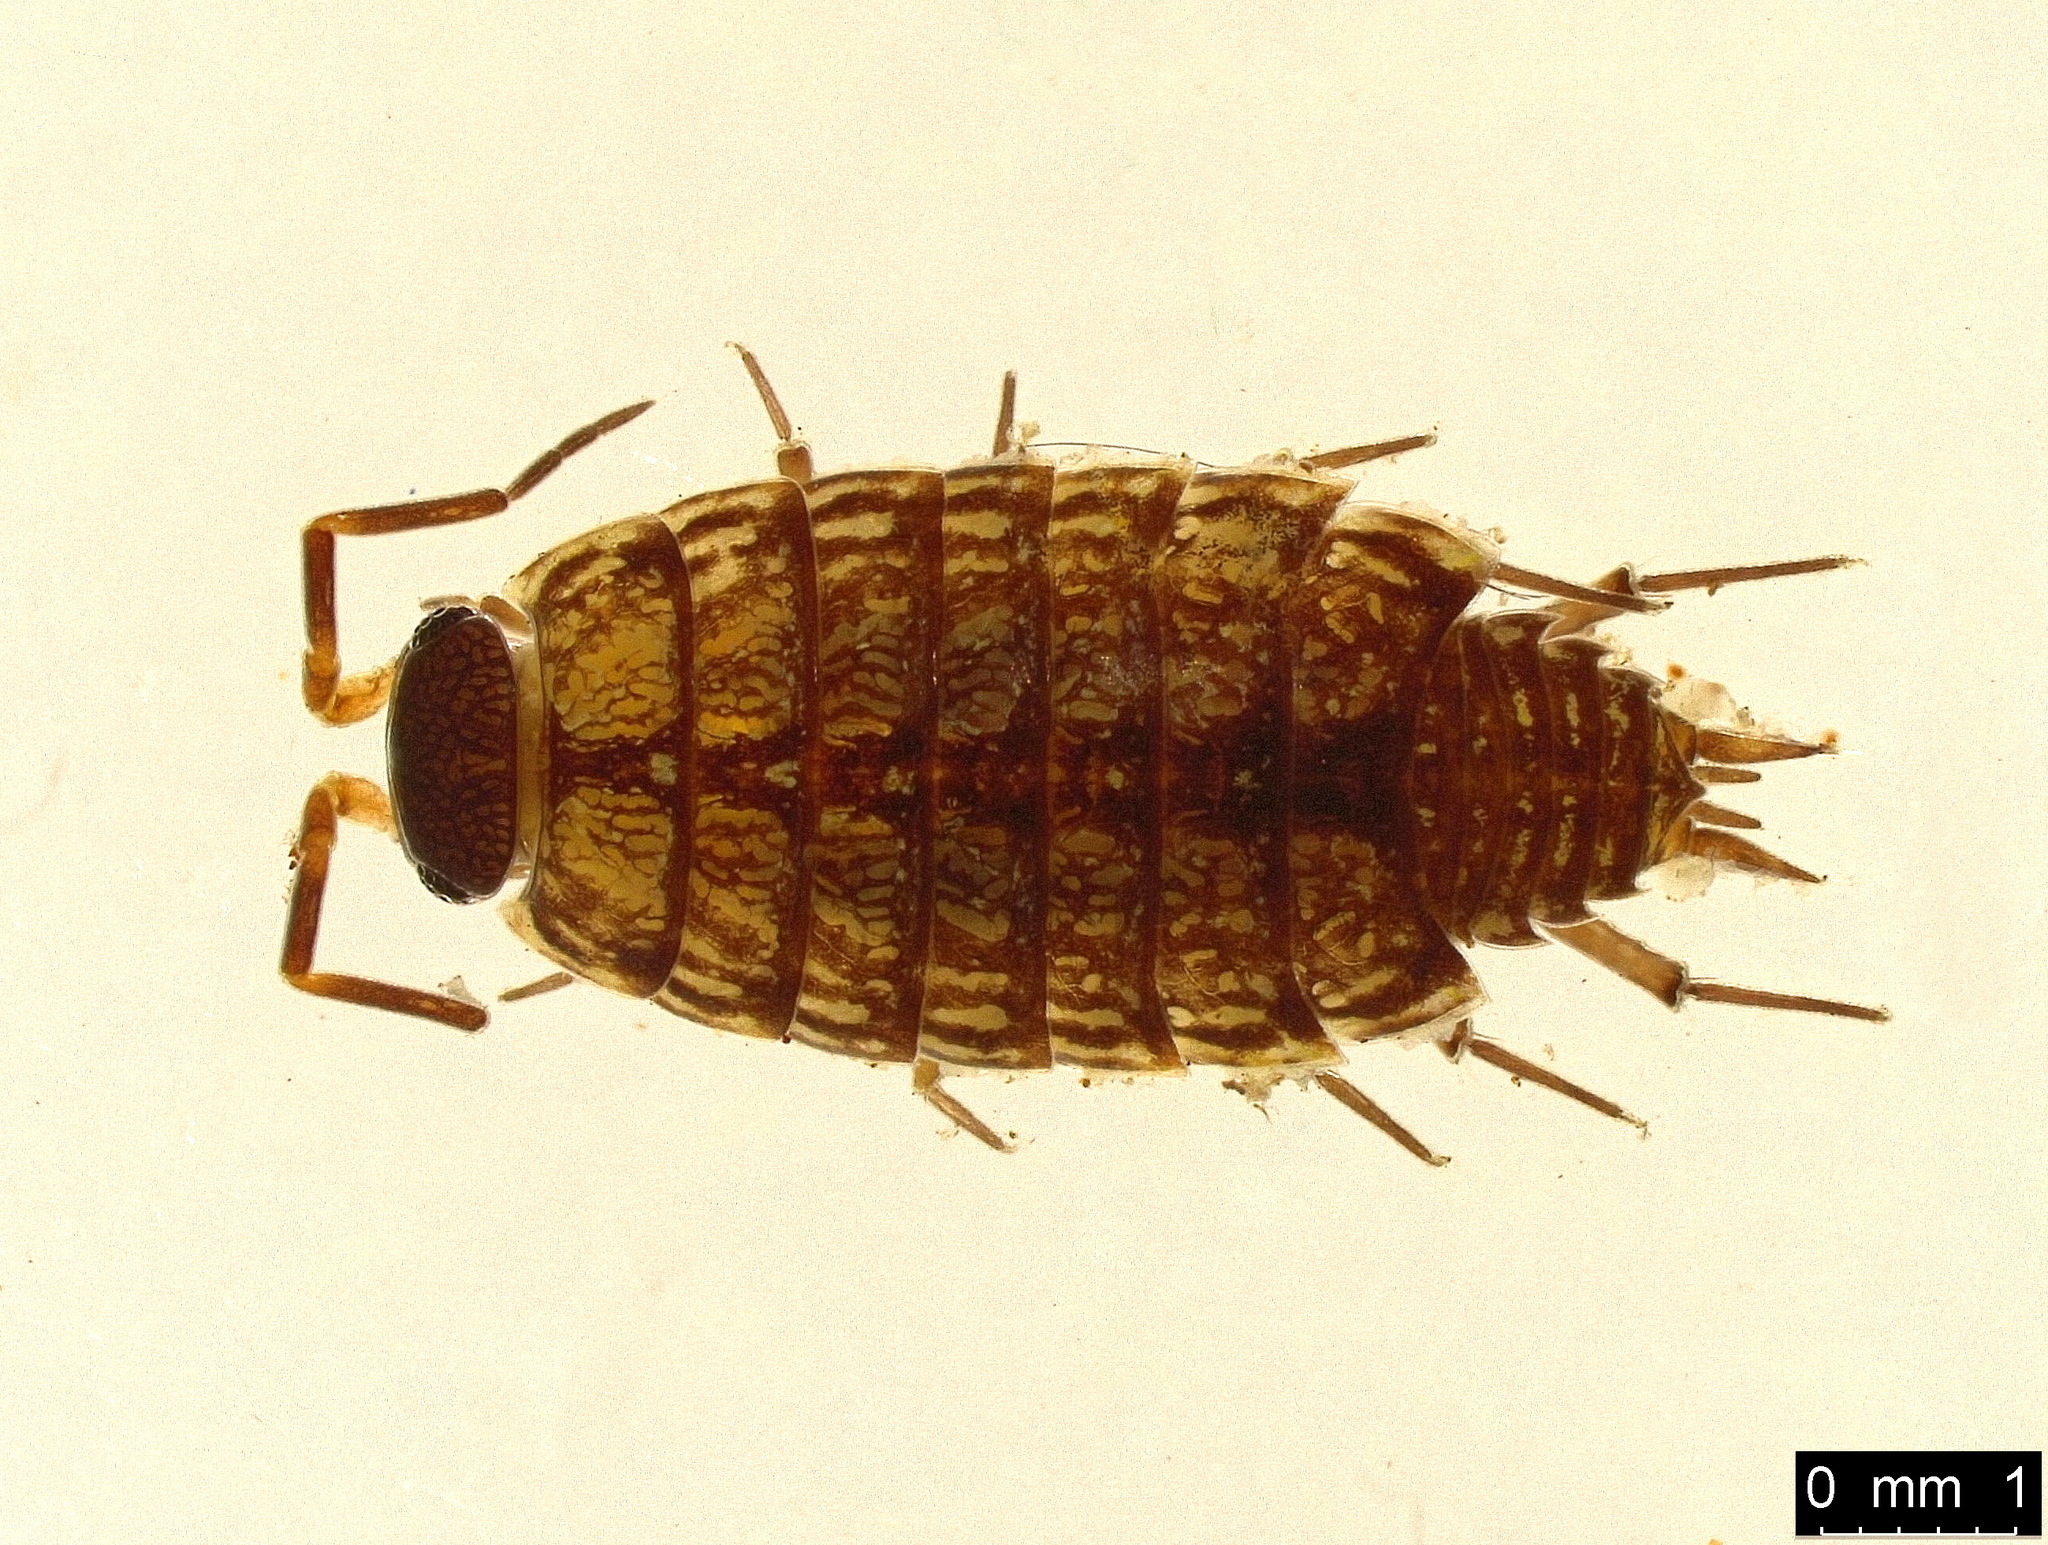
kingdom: Animalia
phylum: Arthropoda
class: Malacostraca
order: Isopoda
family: Philosciidae
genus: Philoscia
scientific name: Philoscia muscorum
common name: Common striped woodlouse
